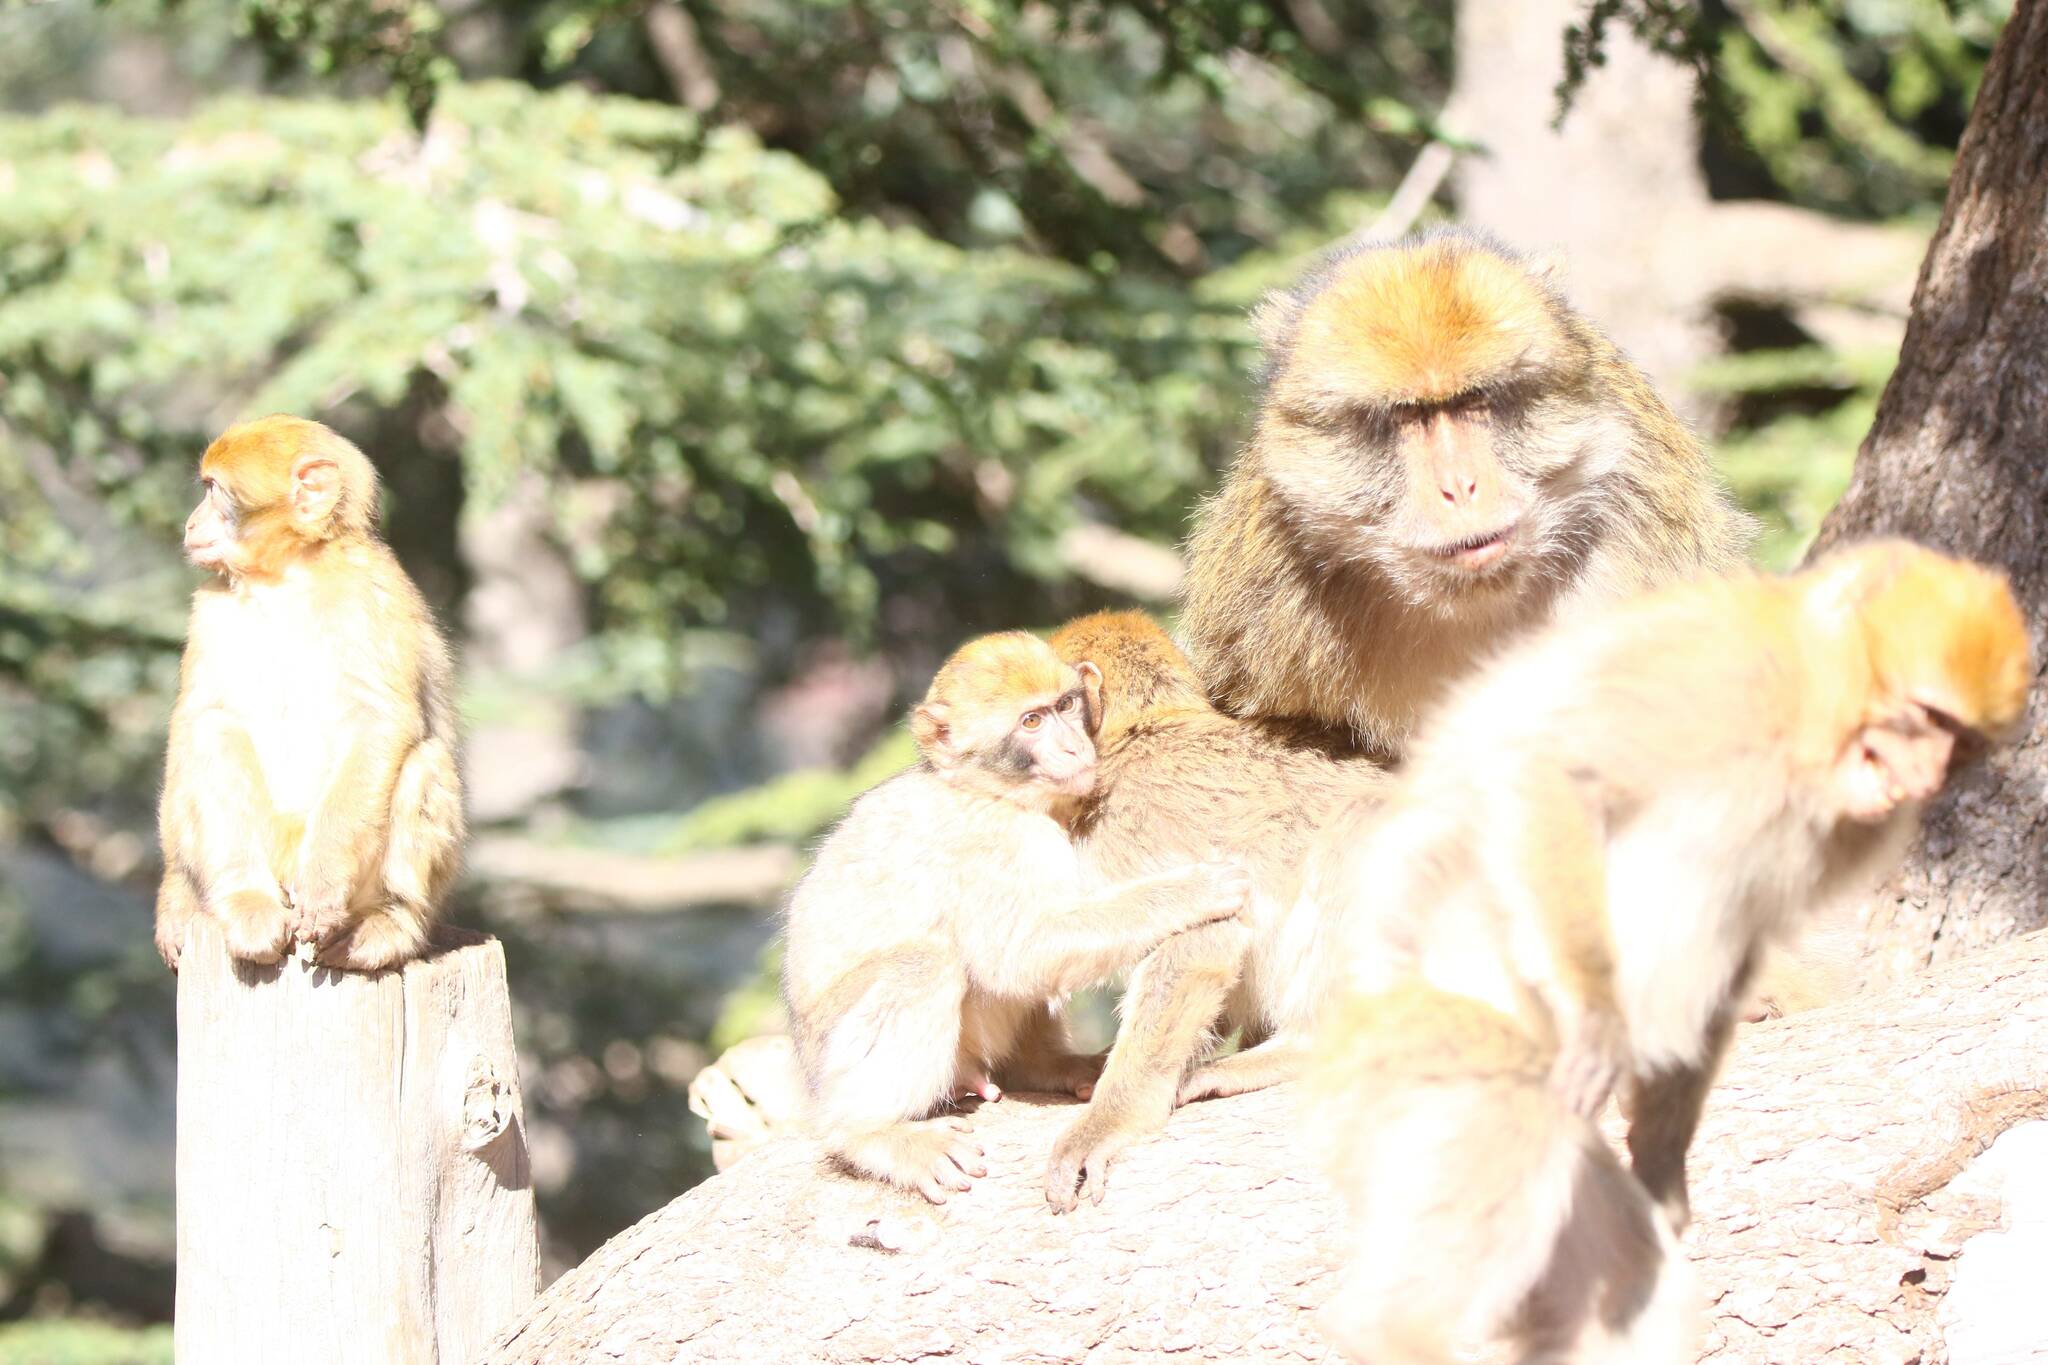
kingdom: Animalia
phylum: Chordata
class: Mammalia
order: Primates
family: Cercopithecidae
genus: Macaca
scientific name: Macaca sylvanus
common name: Barbary macaque
